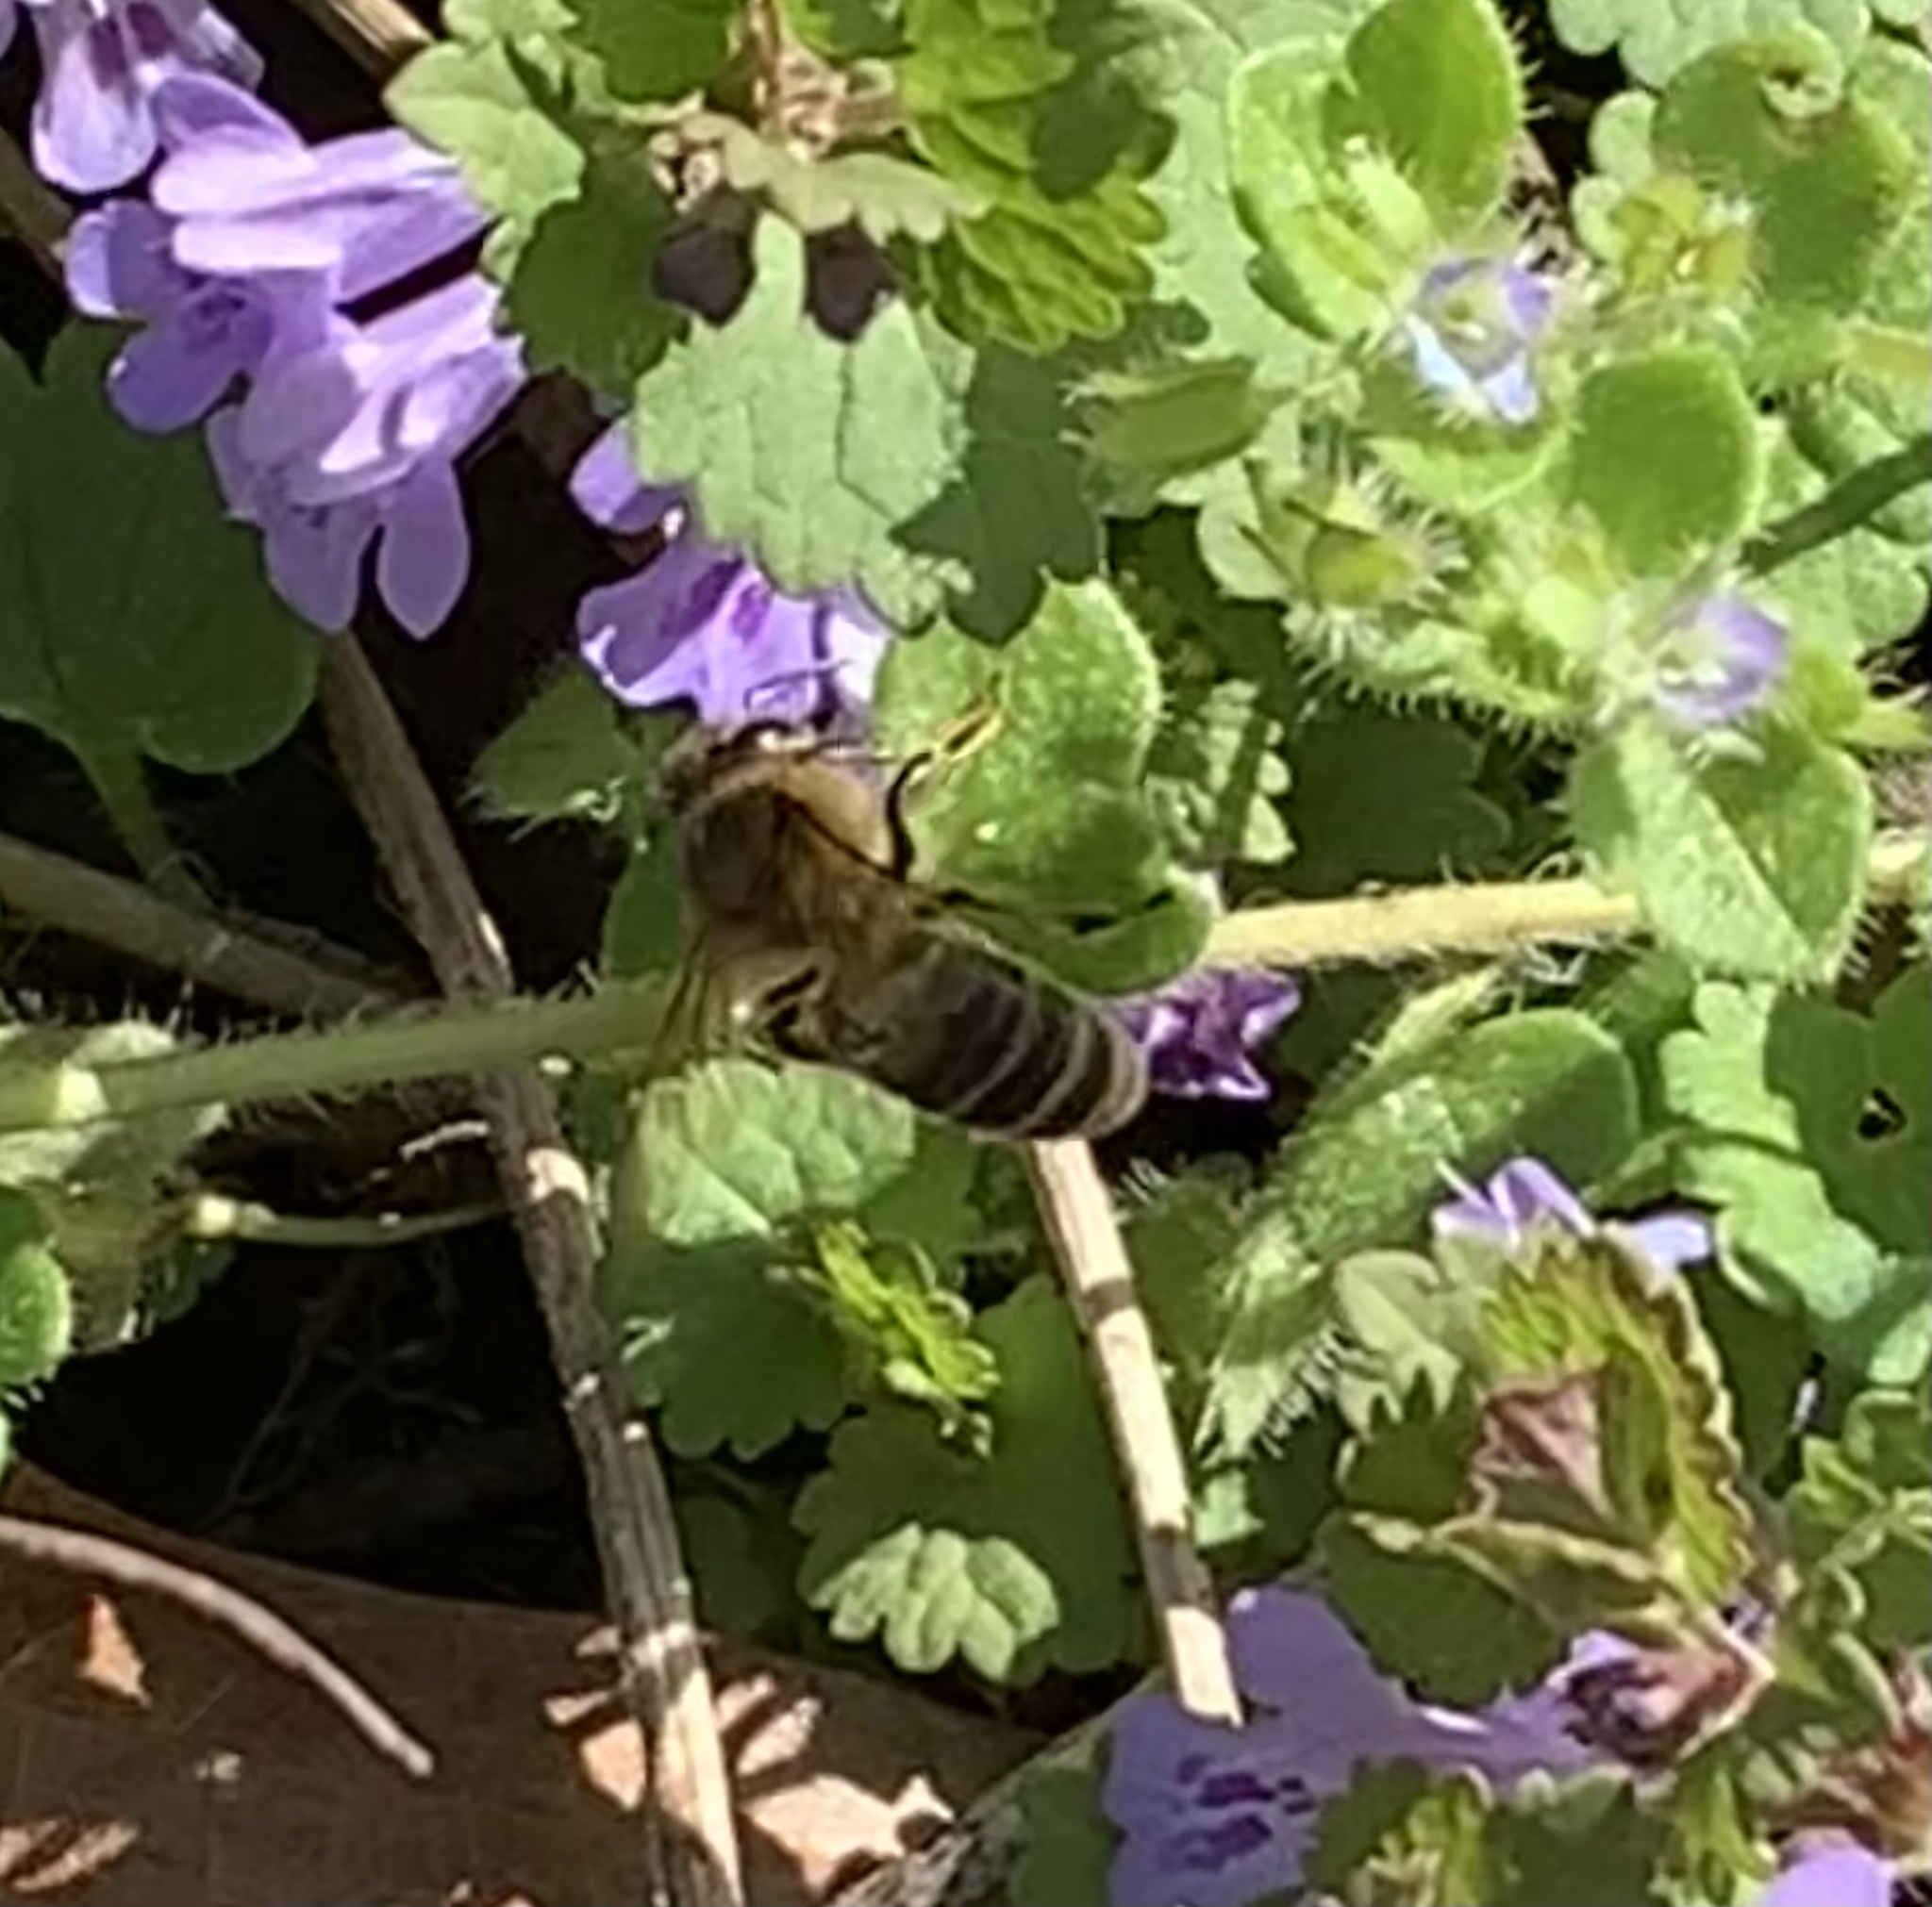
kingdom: Animalia
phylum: Arthropoda
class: Insecta
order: Hymenoptera
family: Apidae
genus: Apis
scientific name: Apis mellifera
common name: Honey bee
